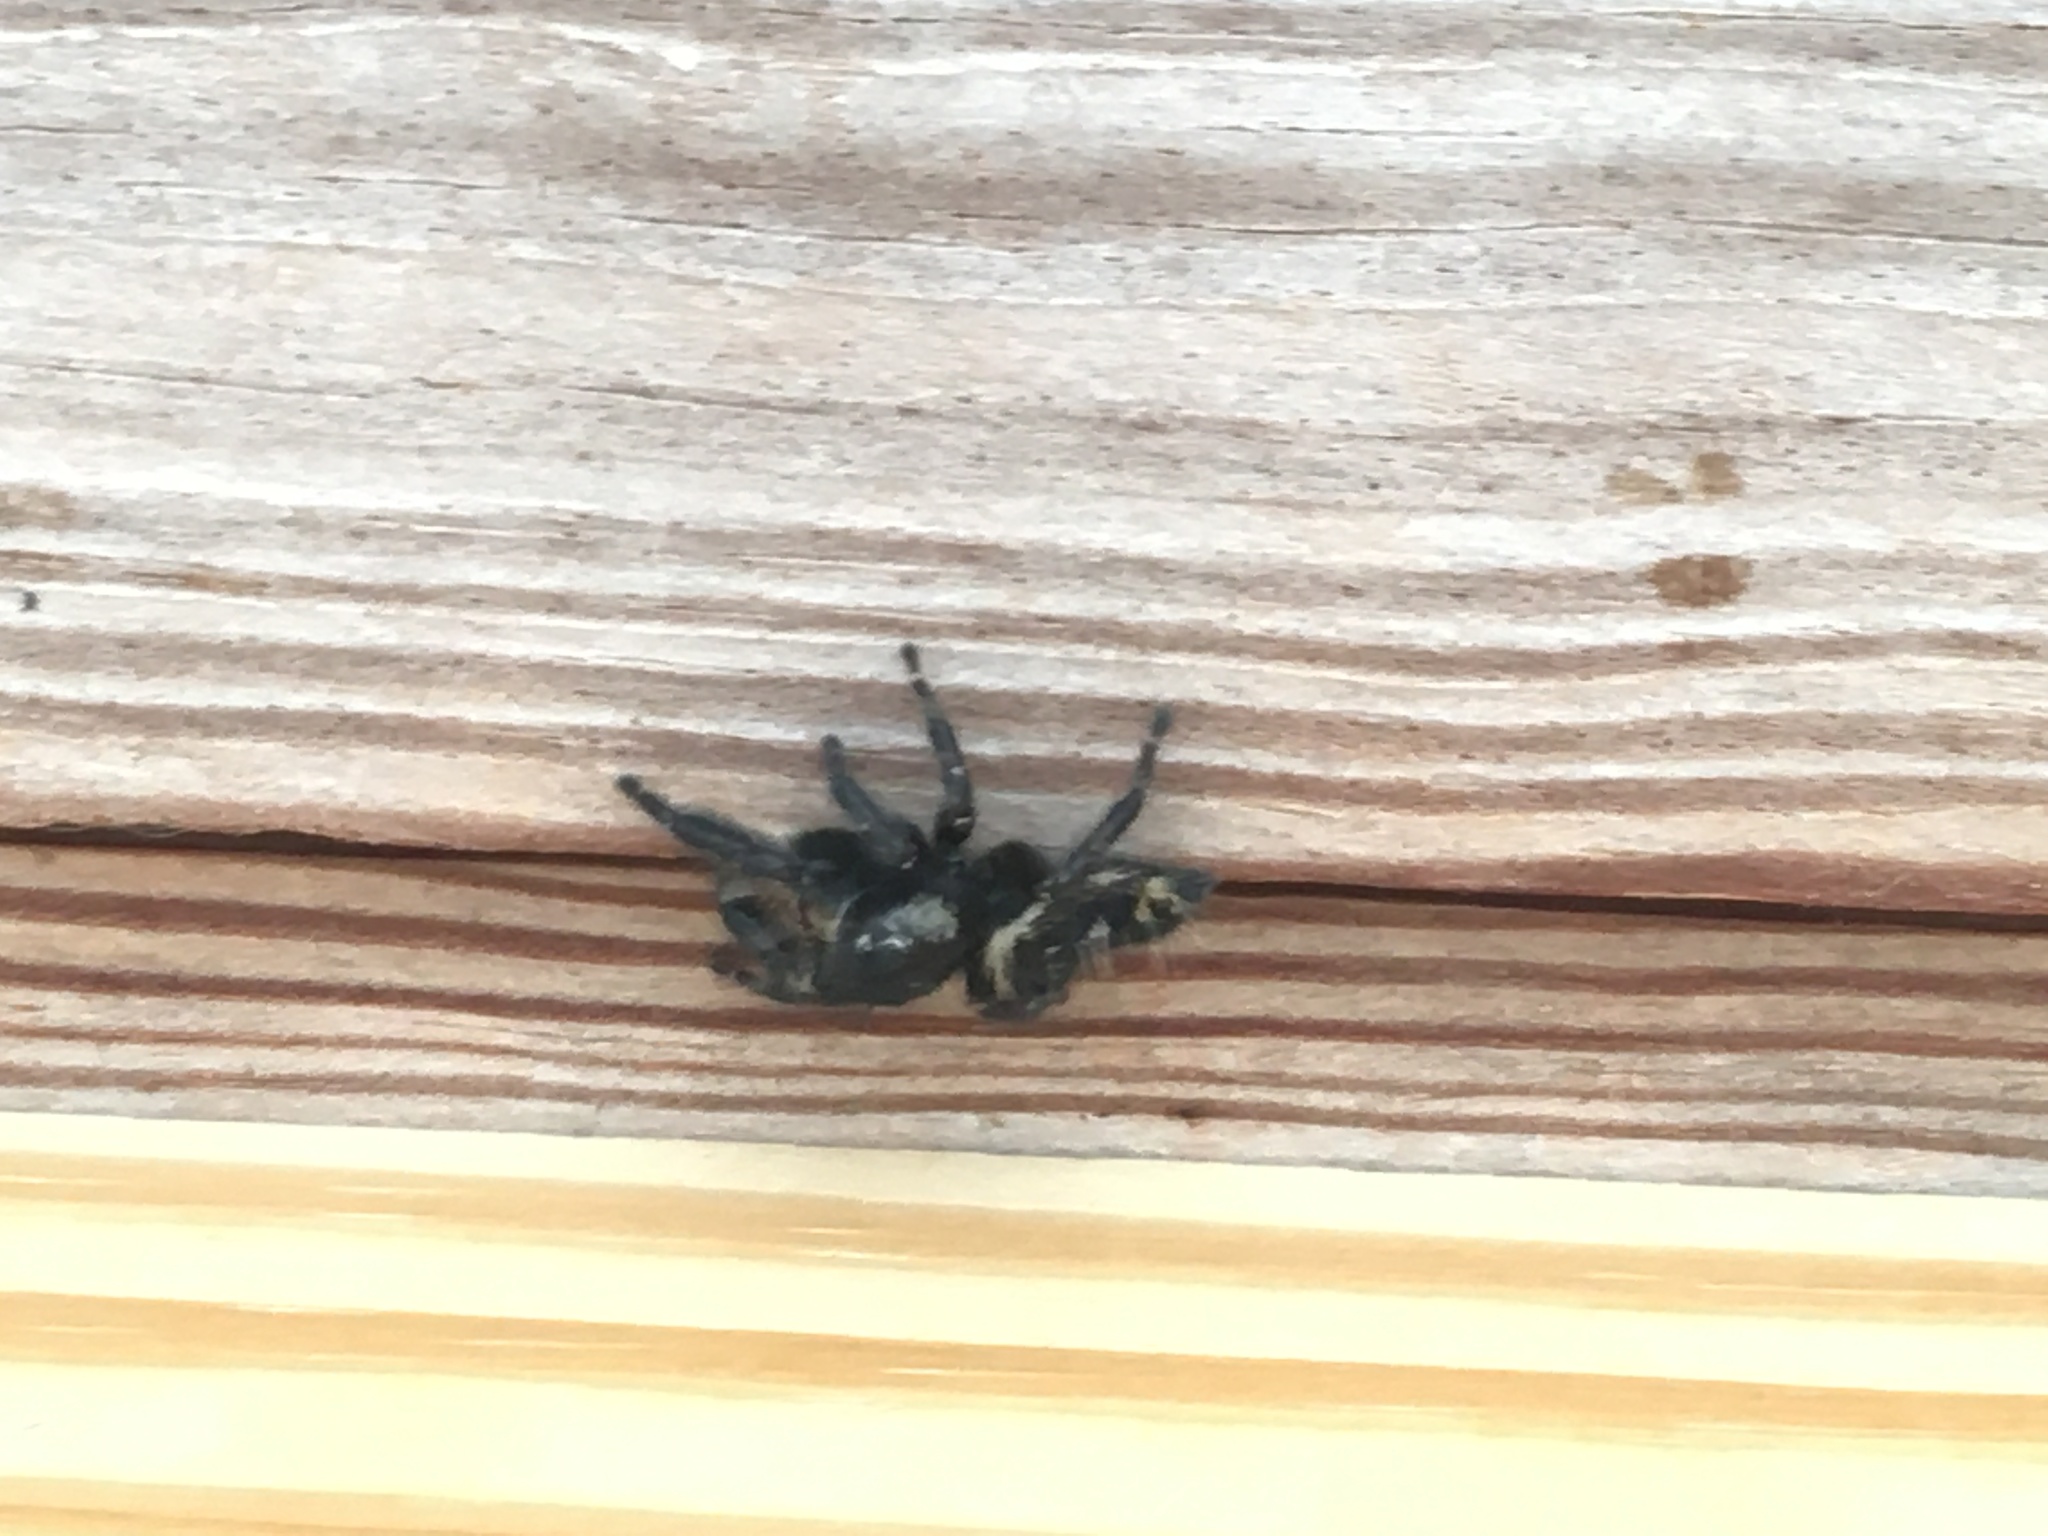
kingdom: Animalia
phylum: Arthropoda
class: Arachnida
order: Araneae
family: Salticidae
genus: Phidippus
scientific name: Phidippus otiosus
